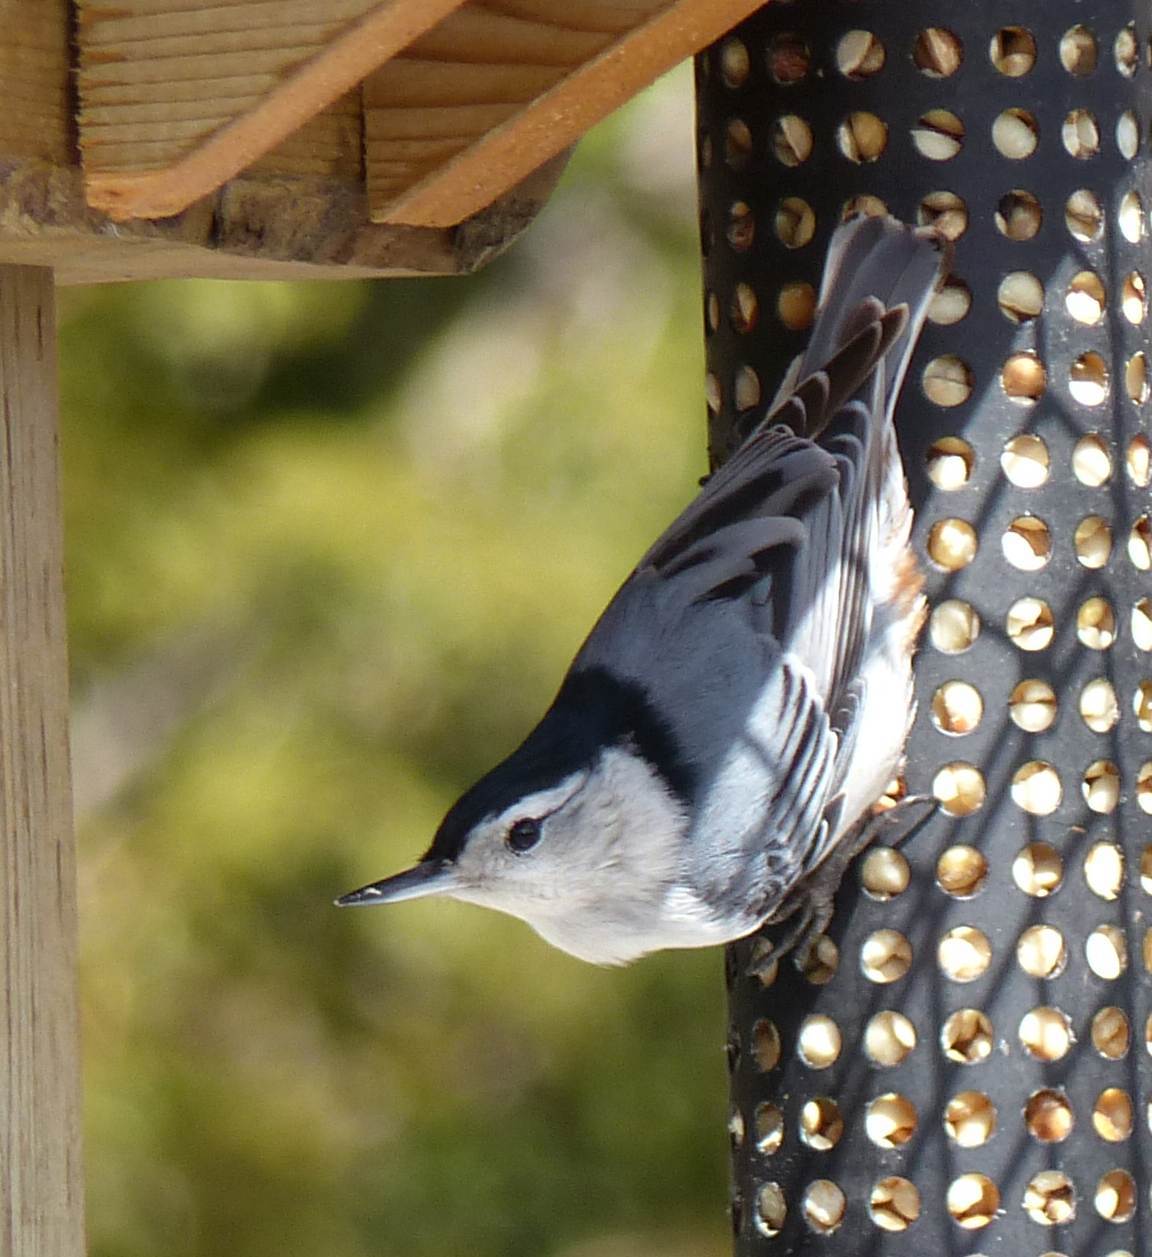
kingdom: Animalia
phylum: Chordata
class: Aves
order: Passeriformes
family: Sittidae
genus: Sitta
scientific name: Sitta carolinensis
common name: White-breasted nuthatch
